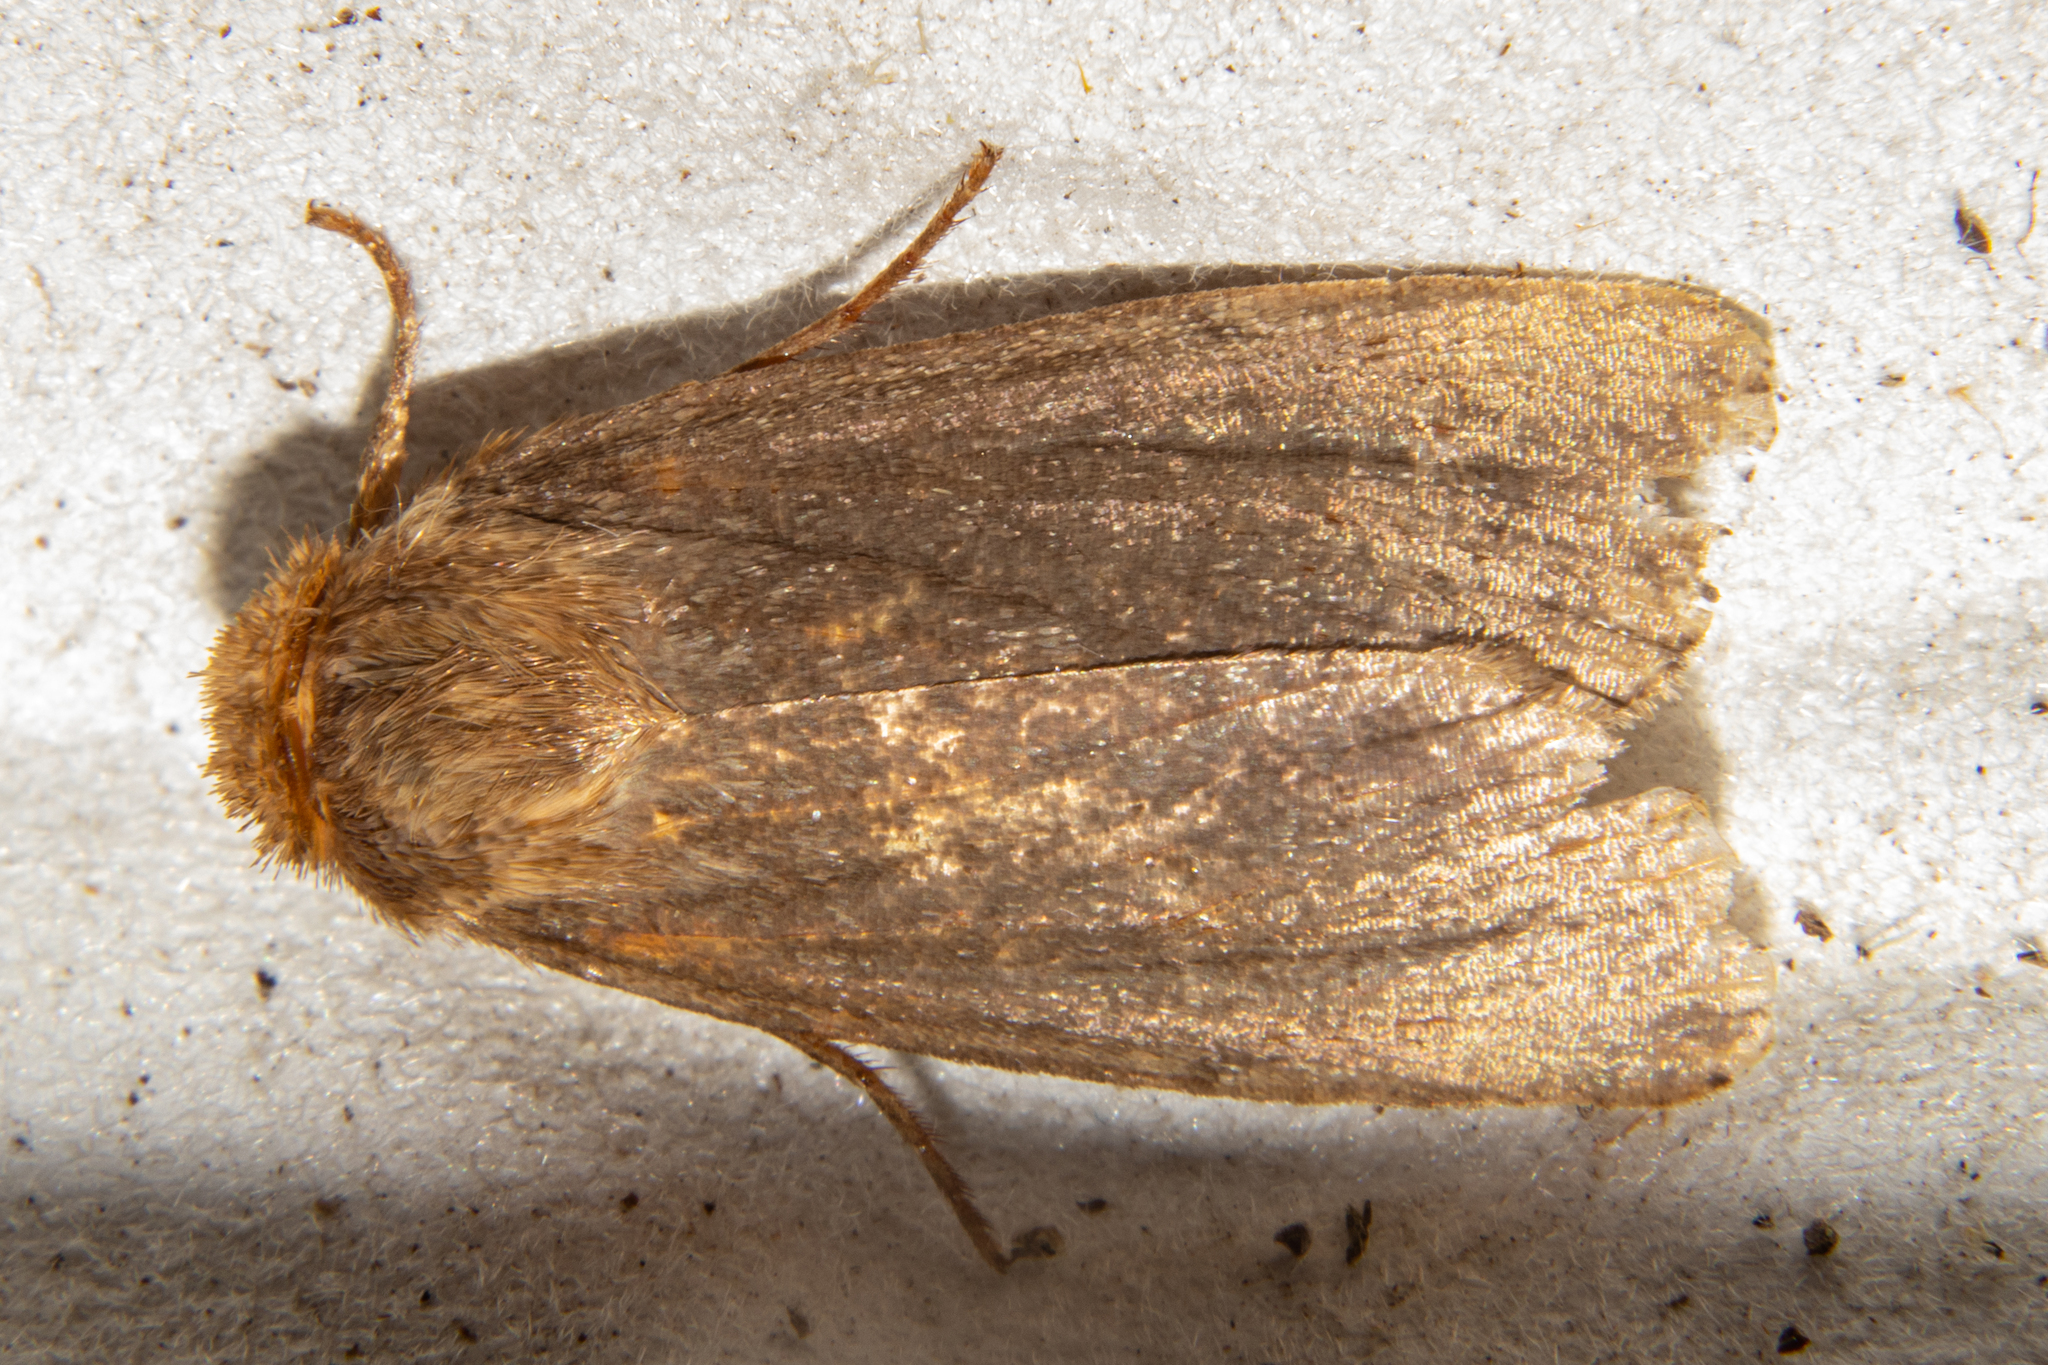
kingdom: Animalia
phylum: Arthropoda
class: Insecta
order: Lepidoptera
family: Noctuidae
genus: Bityla
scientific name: Bityla defigurata
